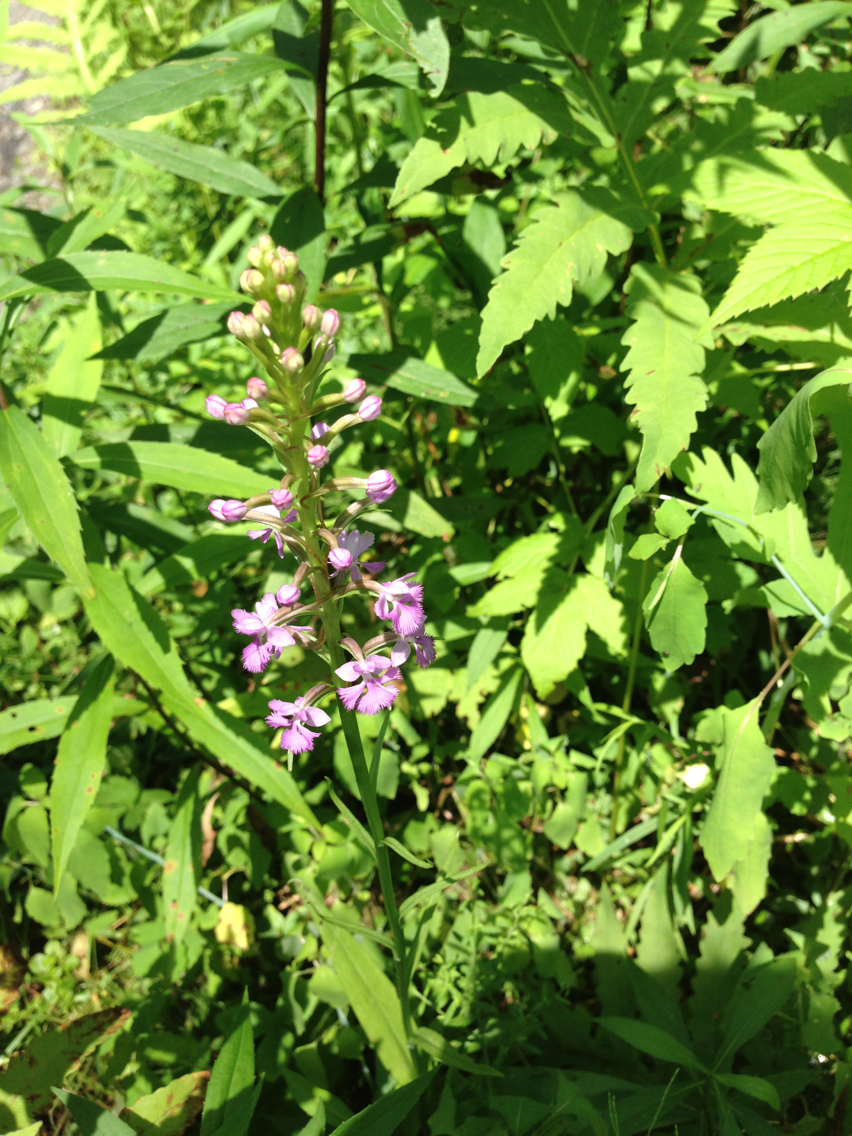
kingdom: Plantae
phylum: Tracheophyta
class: Liliopsida
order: Asparagales
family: Orchidaceae
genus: Platanthera
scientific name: Platanthera psycodes
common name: Lesser purple fringed orchid
